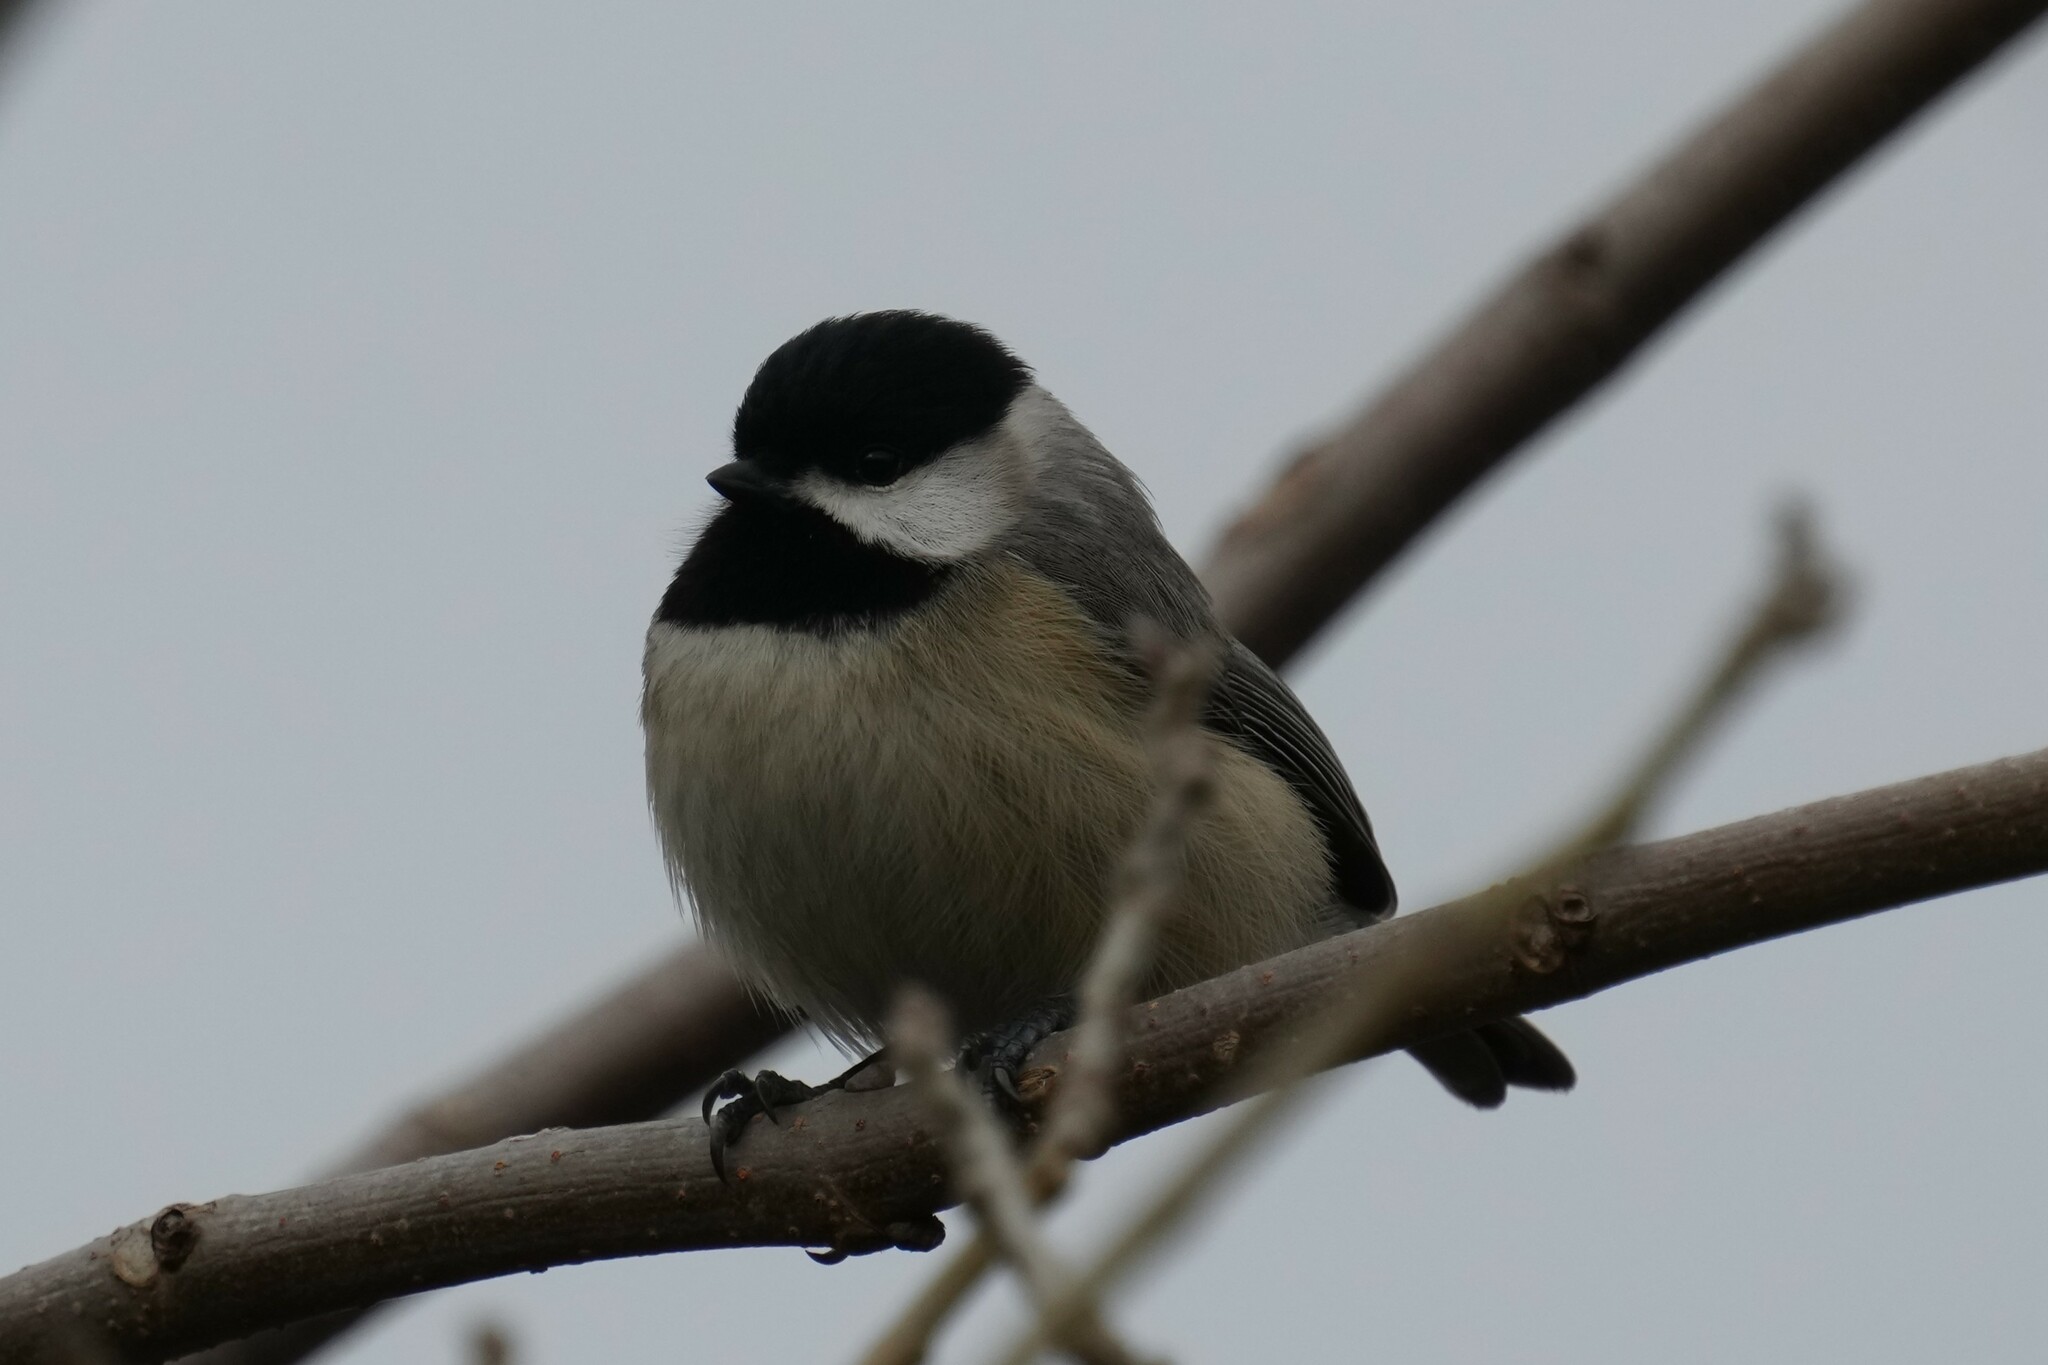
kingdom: Animalia
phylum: Chordata
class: Aves
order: Passeriformes
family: Paridae
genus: Poecile
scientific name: Poecile carolinensis
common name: Carolina chickadee
